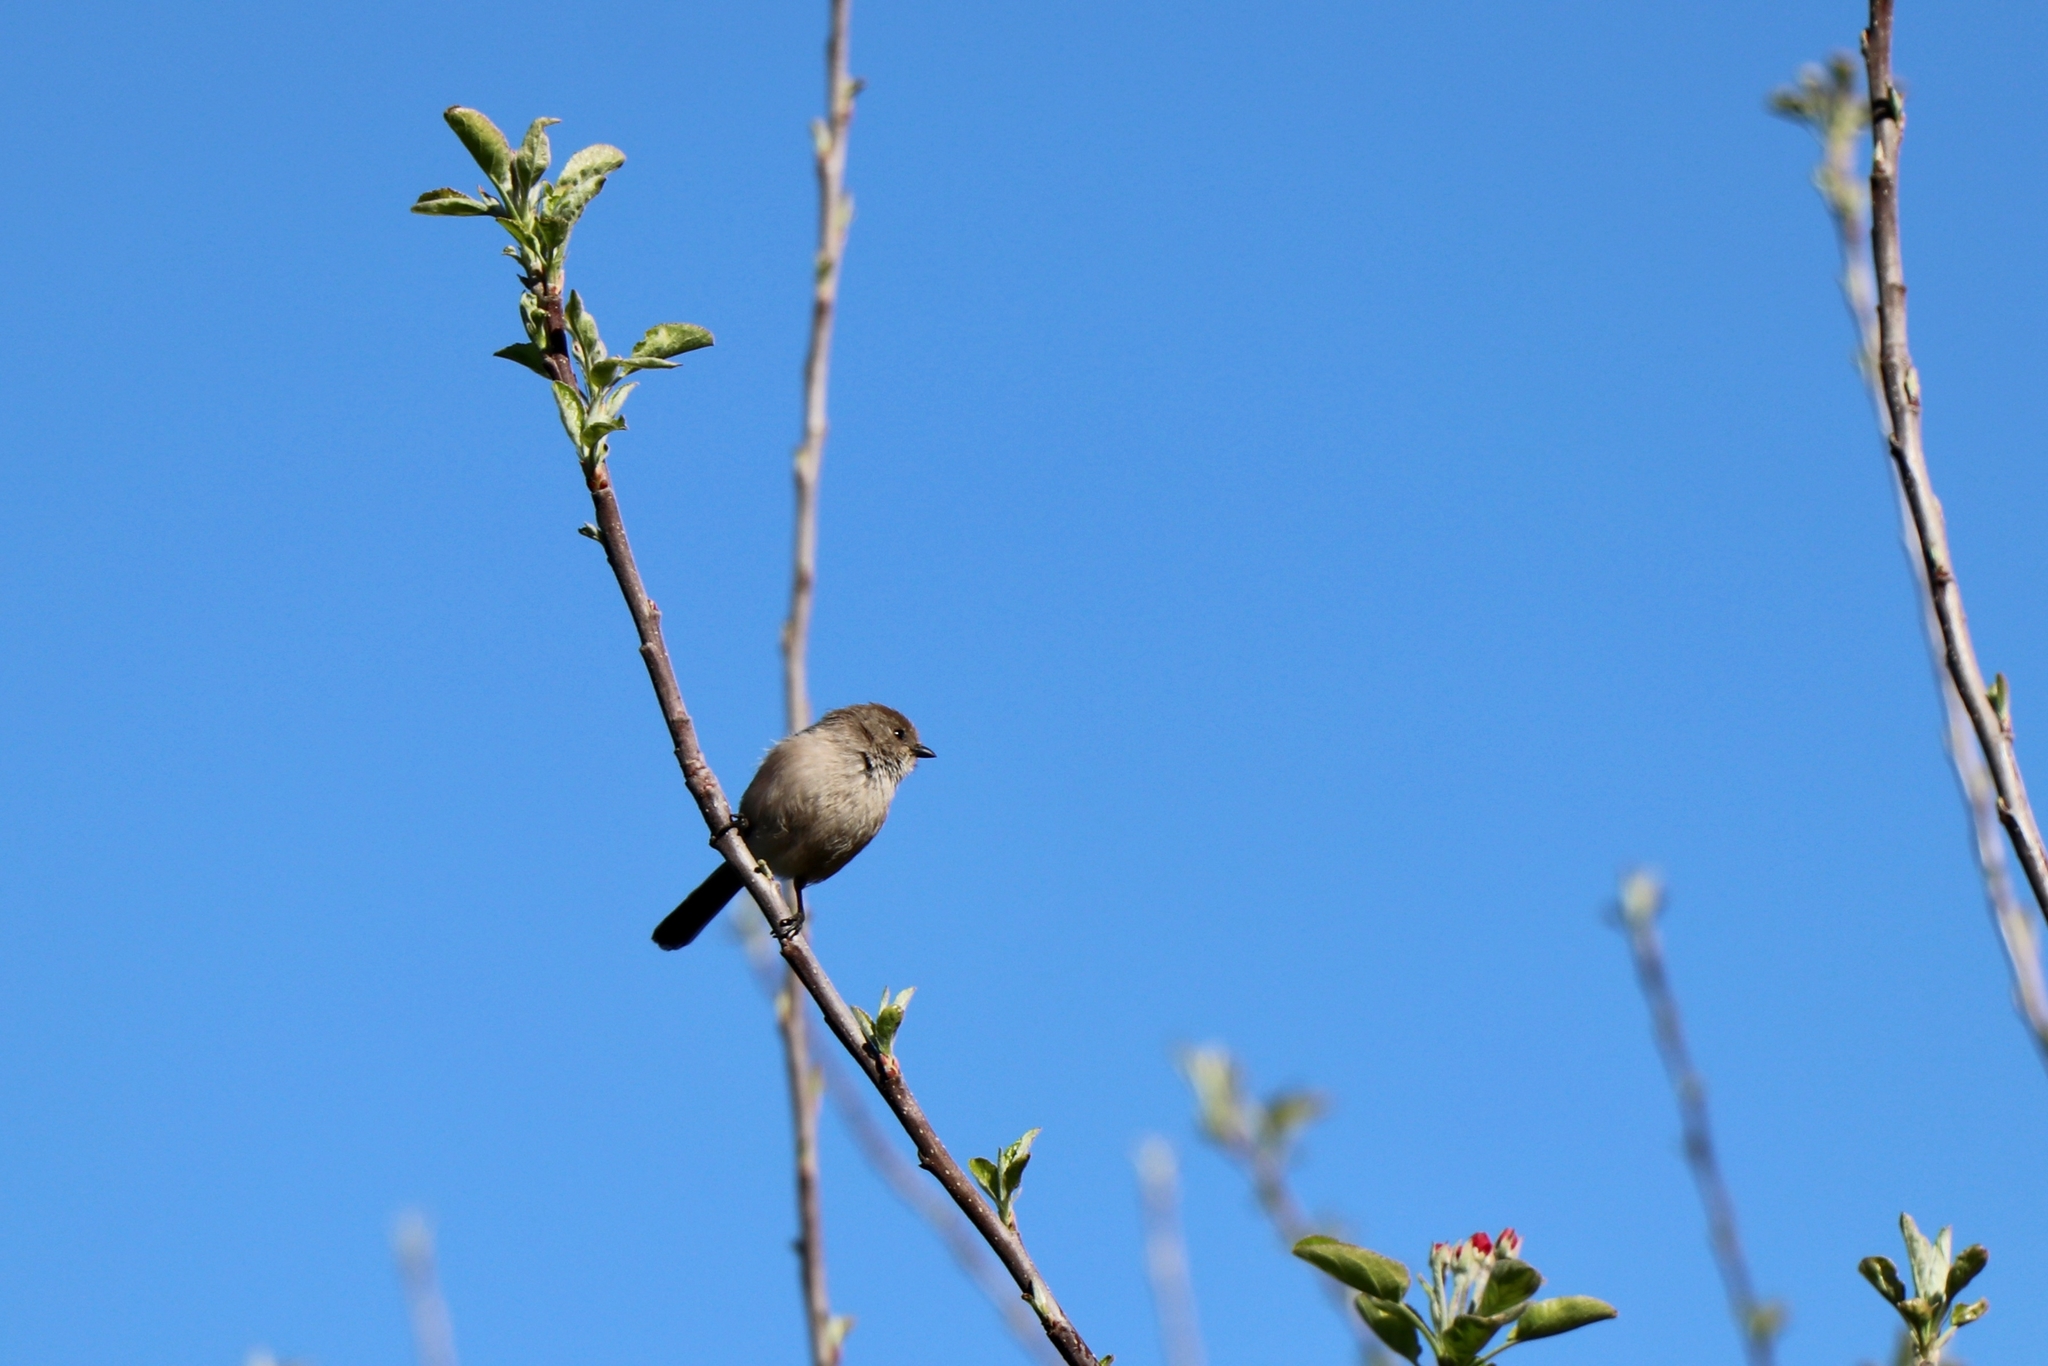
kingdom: Animalia
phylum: Chordata
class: Aves
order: Passeriformes
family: Aegithalidae
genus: Psaltriparus
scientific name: Psaltriparus minimus
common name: American bushtit
